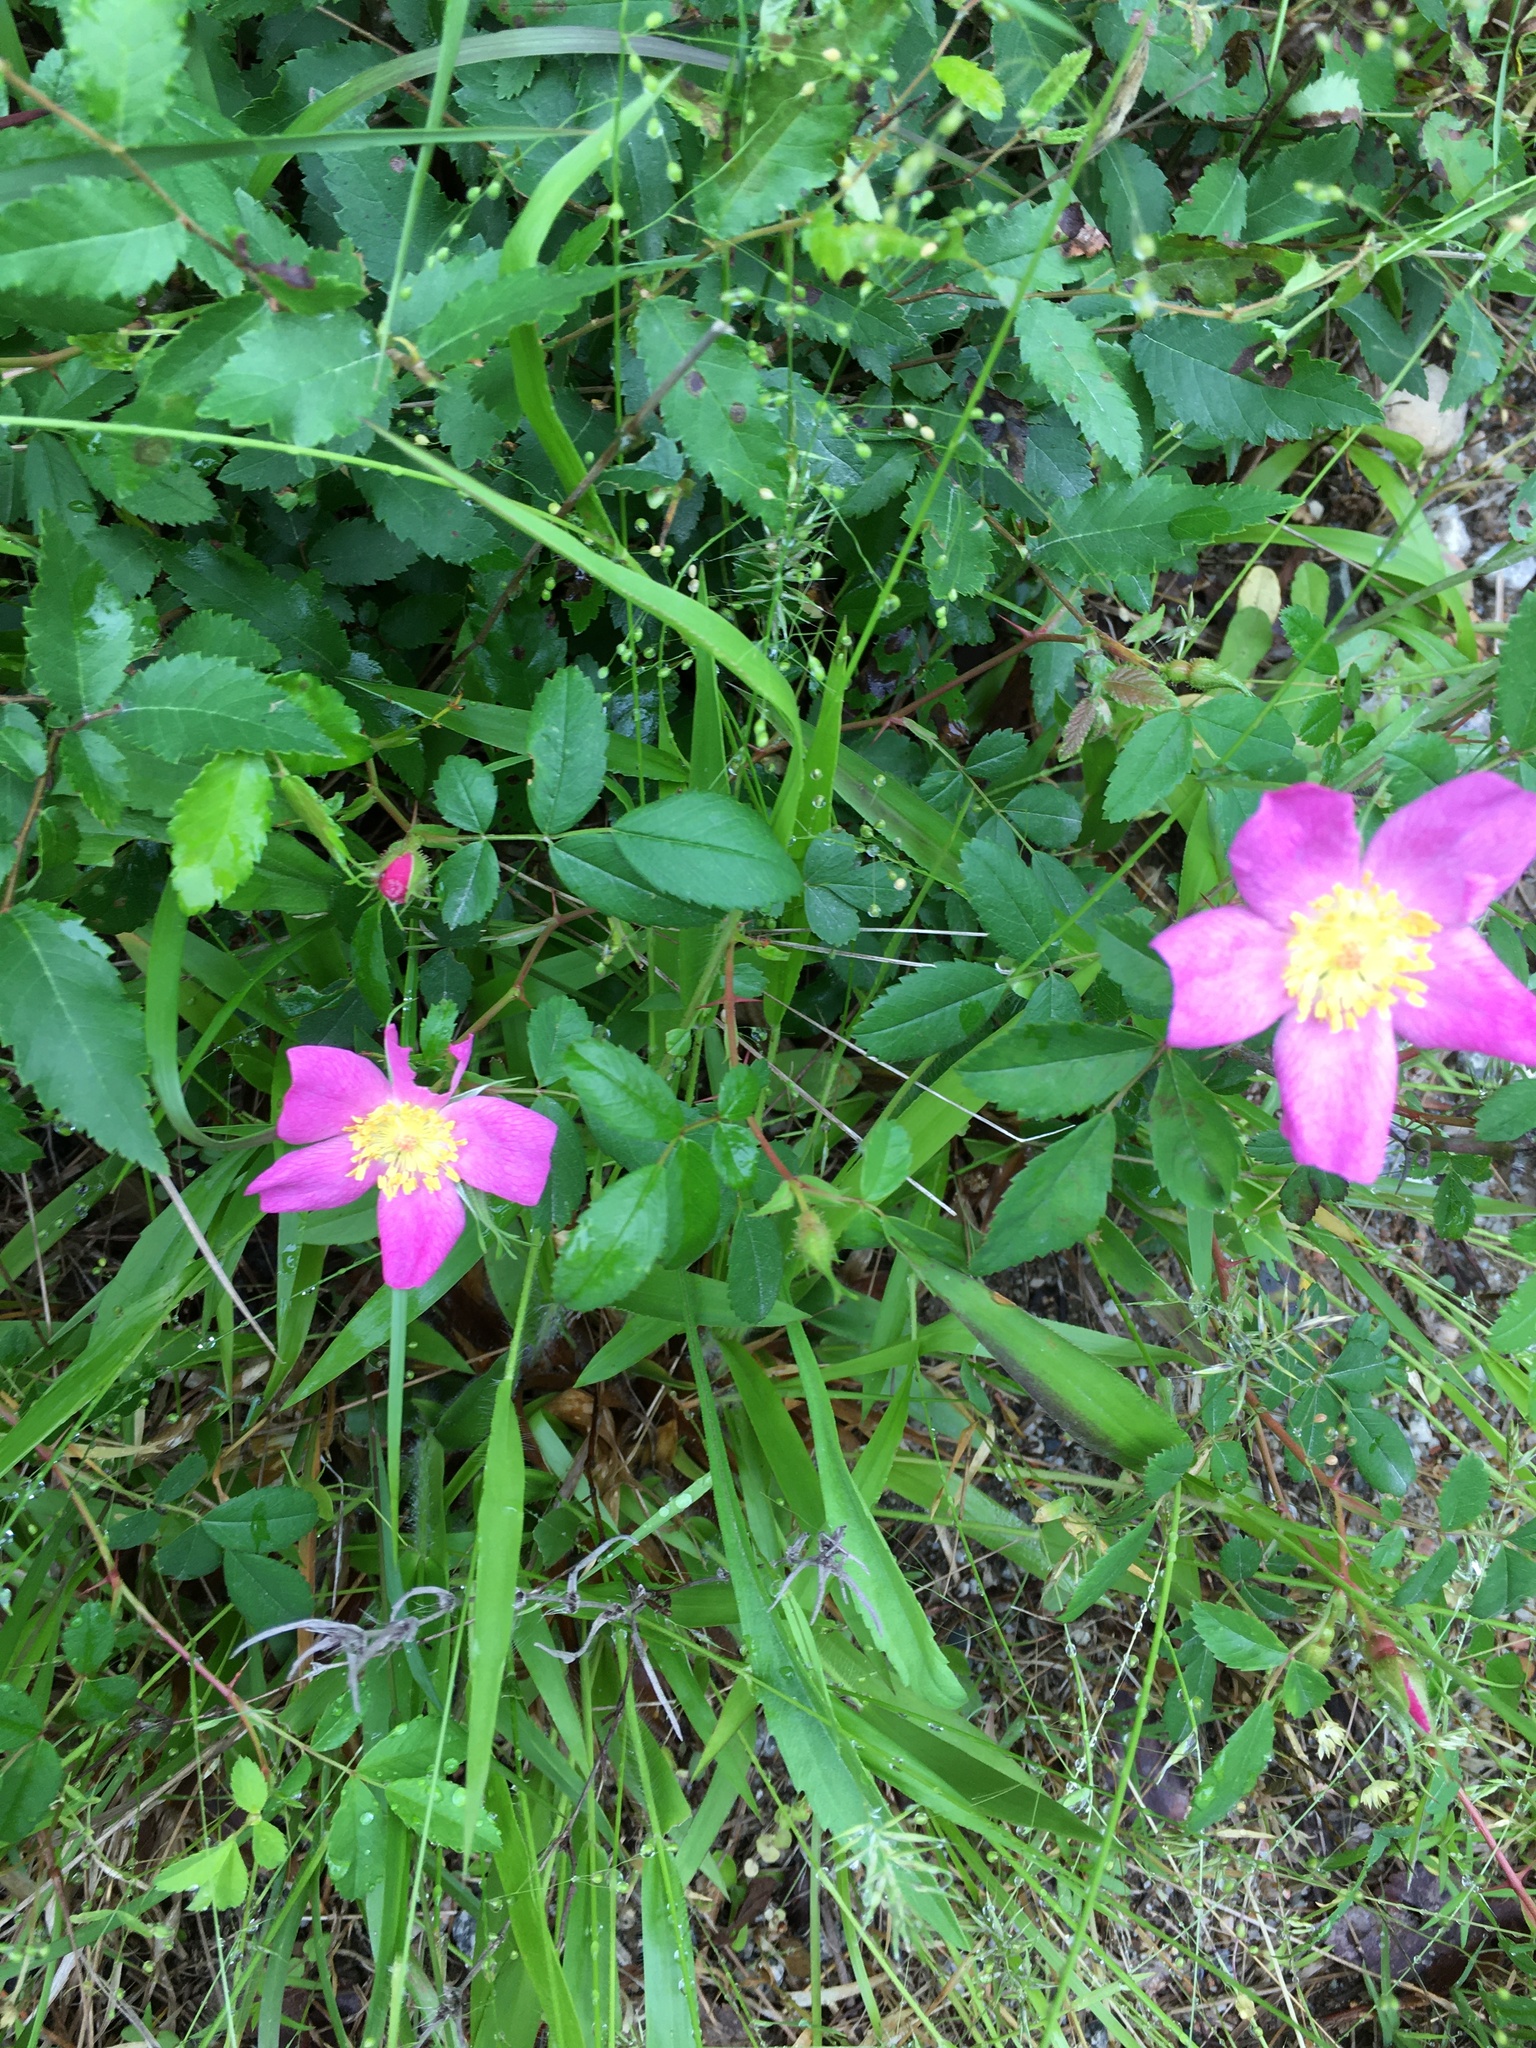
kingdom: Plantae
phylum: Tracheophyta
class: Magnoliopsida
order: Rosales
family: Rosaceae
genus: Rosa
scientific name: Rosa carolina
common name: Pasture rose
